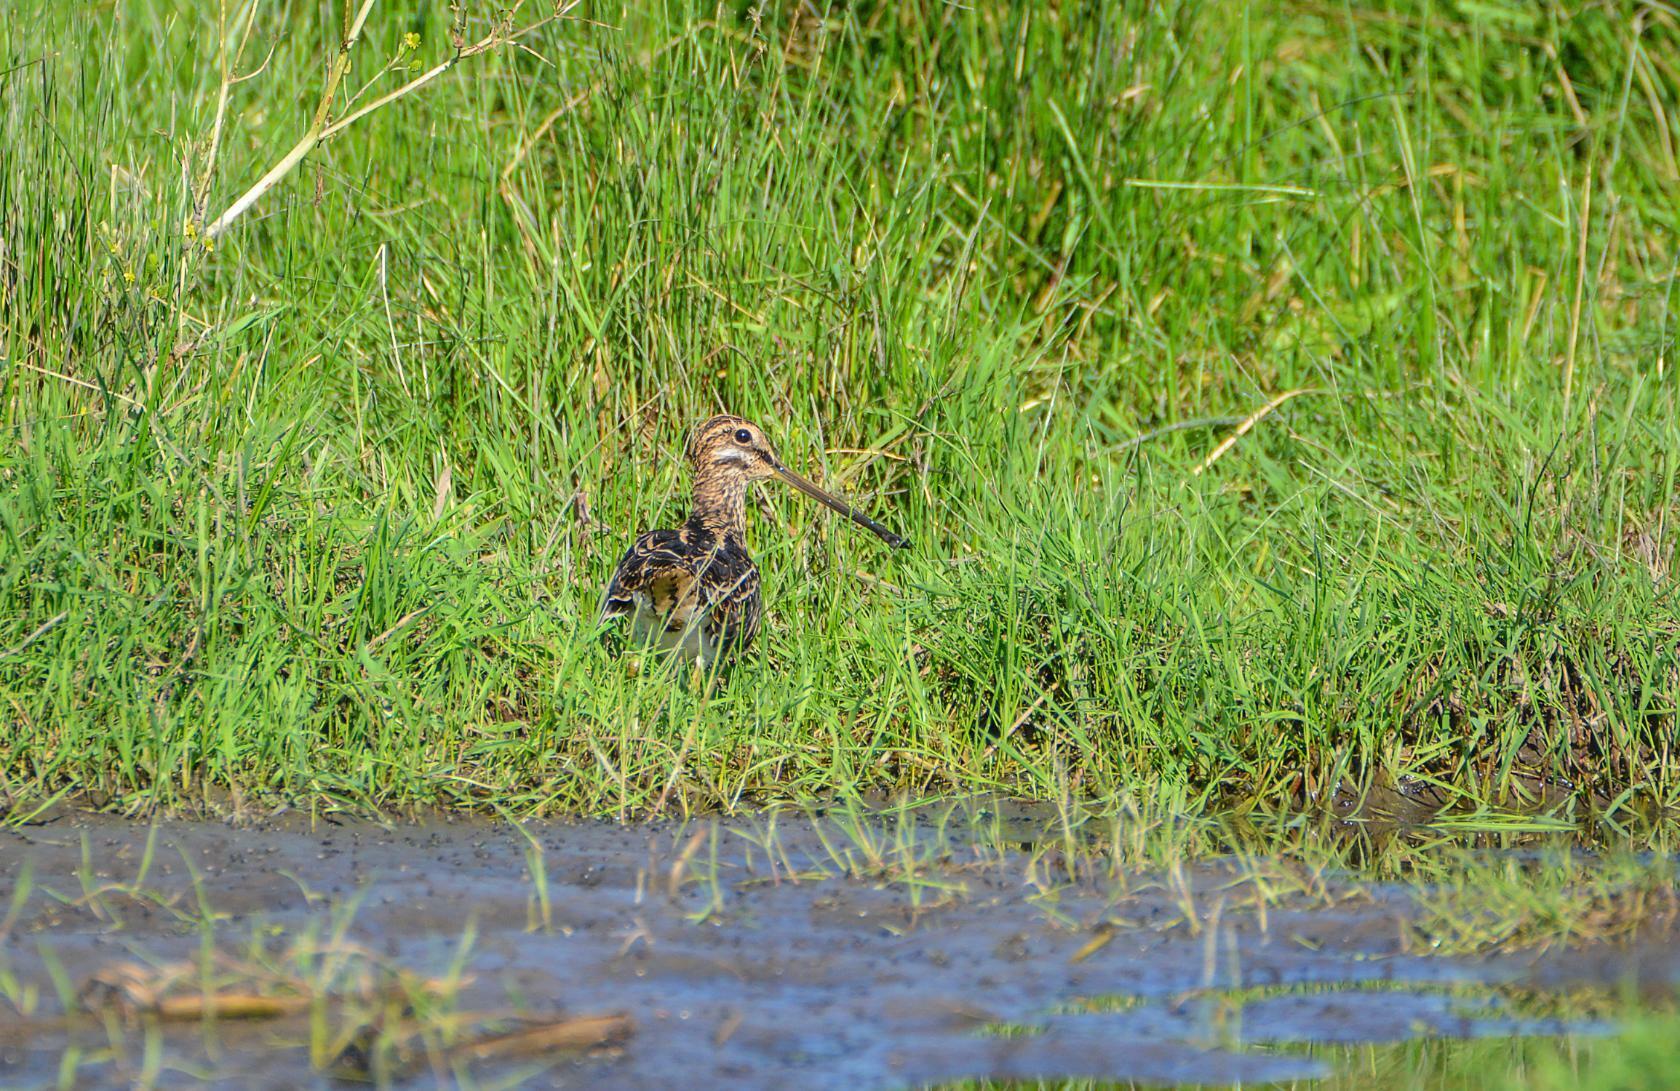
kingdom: Animalia
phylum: Chordata
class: Aves
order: Charadriiformes
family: Scolopacidae
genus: Gallinago
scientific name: Gallinago gallinago
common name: Common snipe
